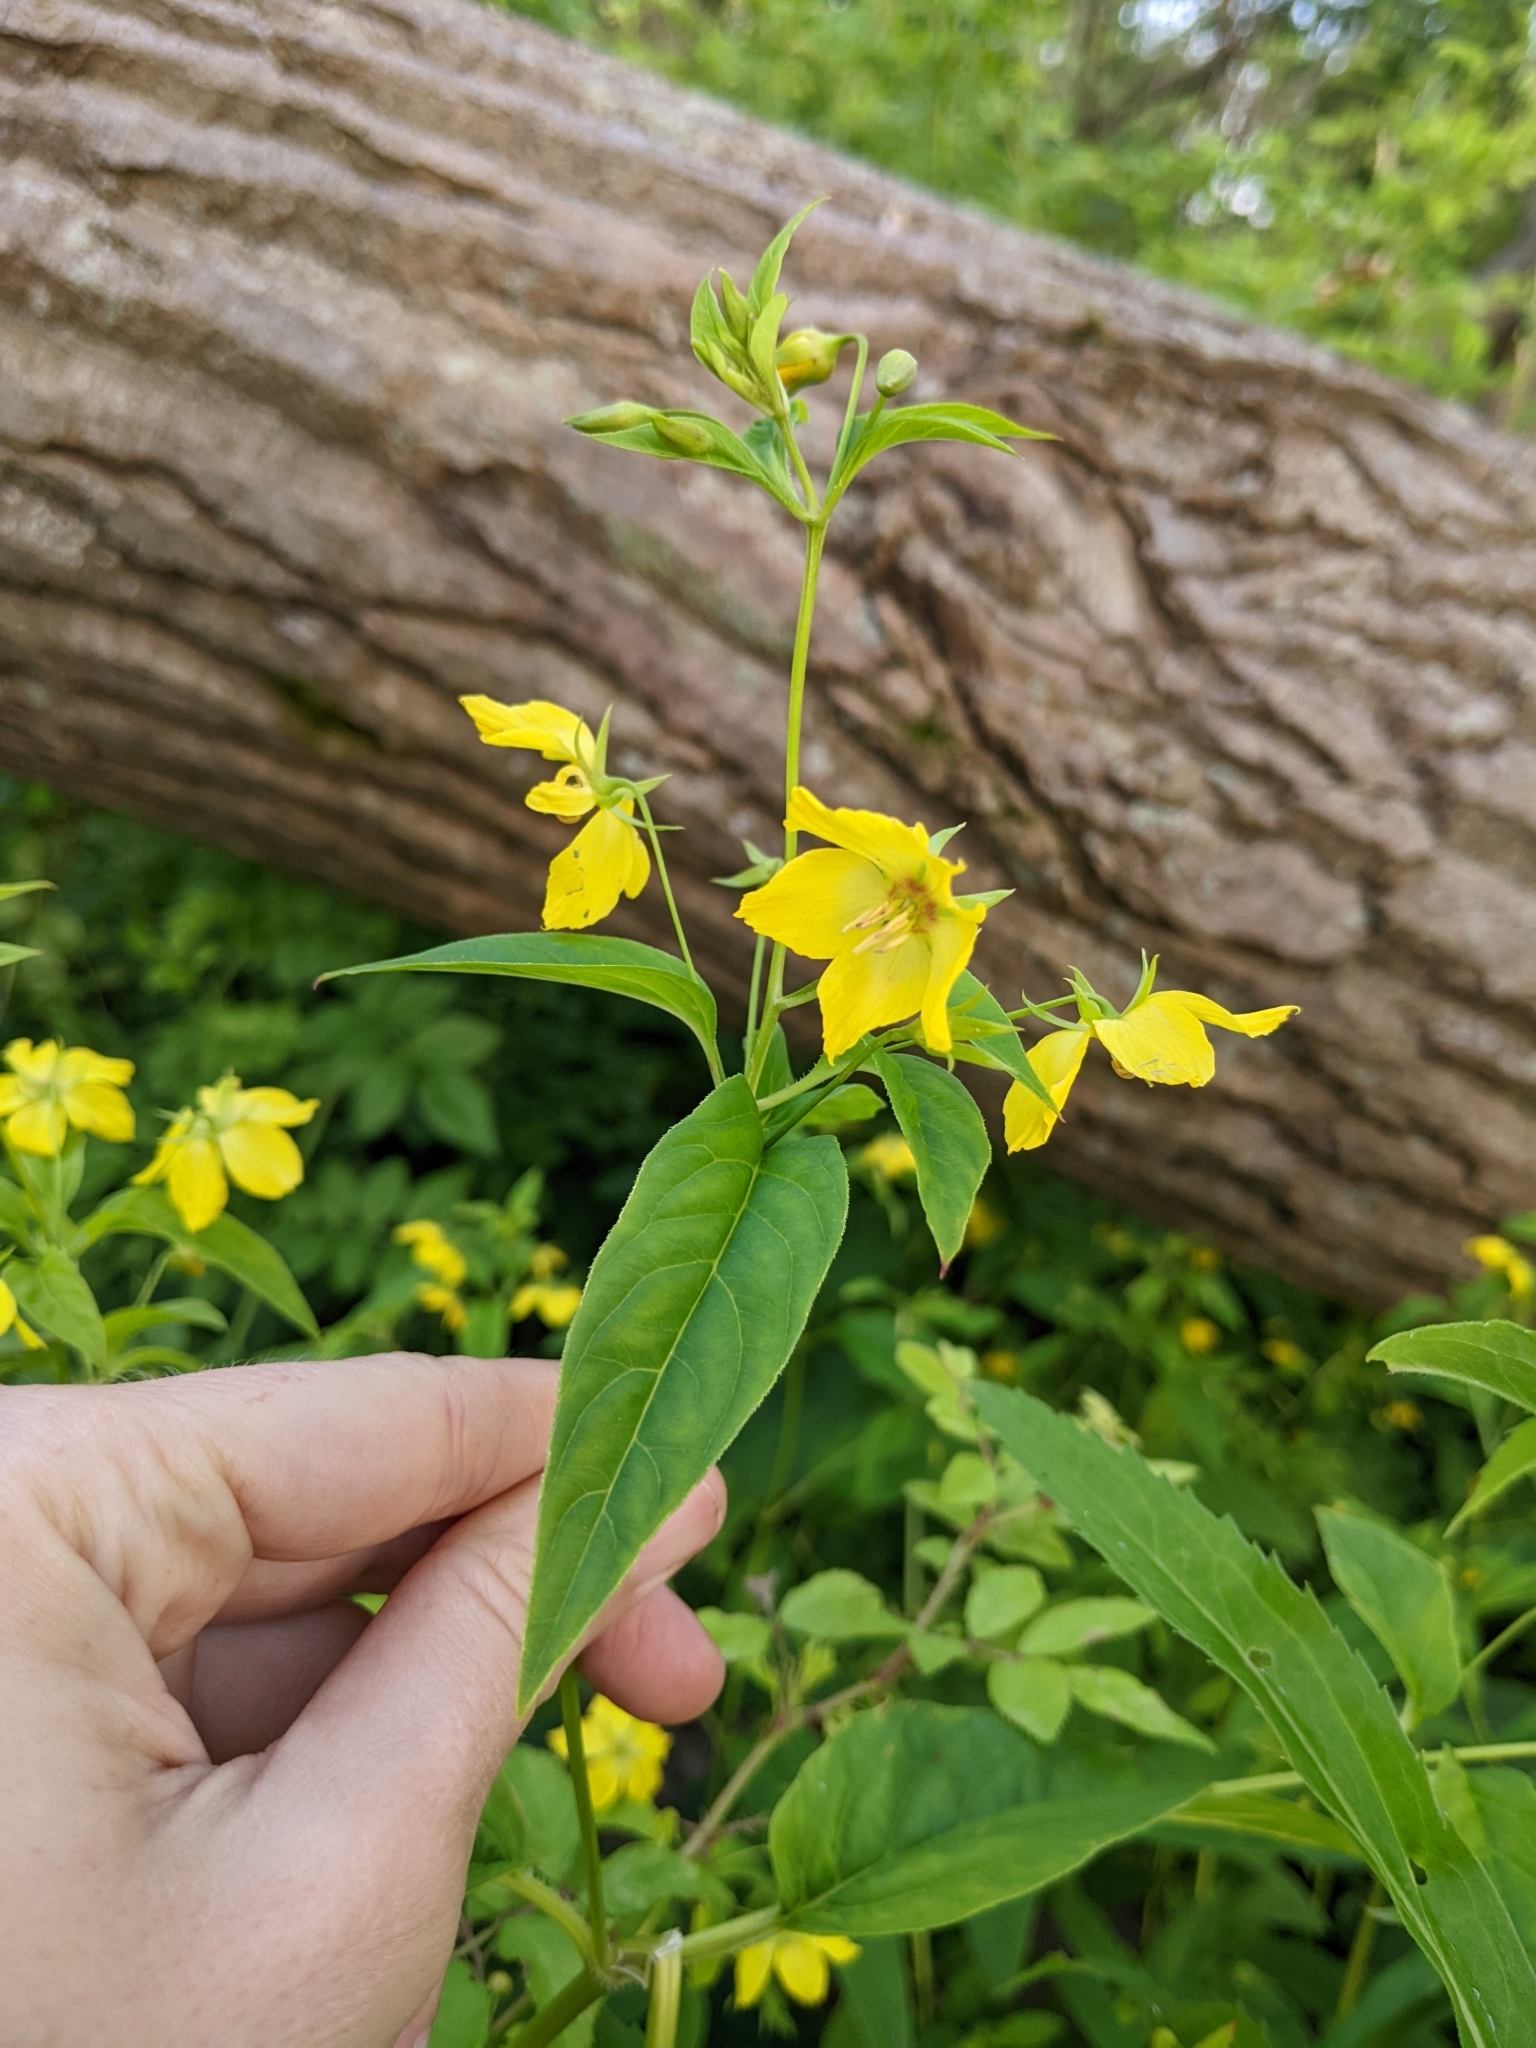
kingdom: Plantae
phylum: Tracheophyta
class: Magnoliopsida
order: Ericales
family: Primulaceae
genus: Lysimachia
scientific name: Lysimachia ciliata
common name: Fringed loosestrife
